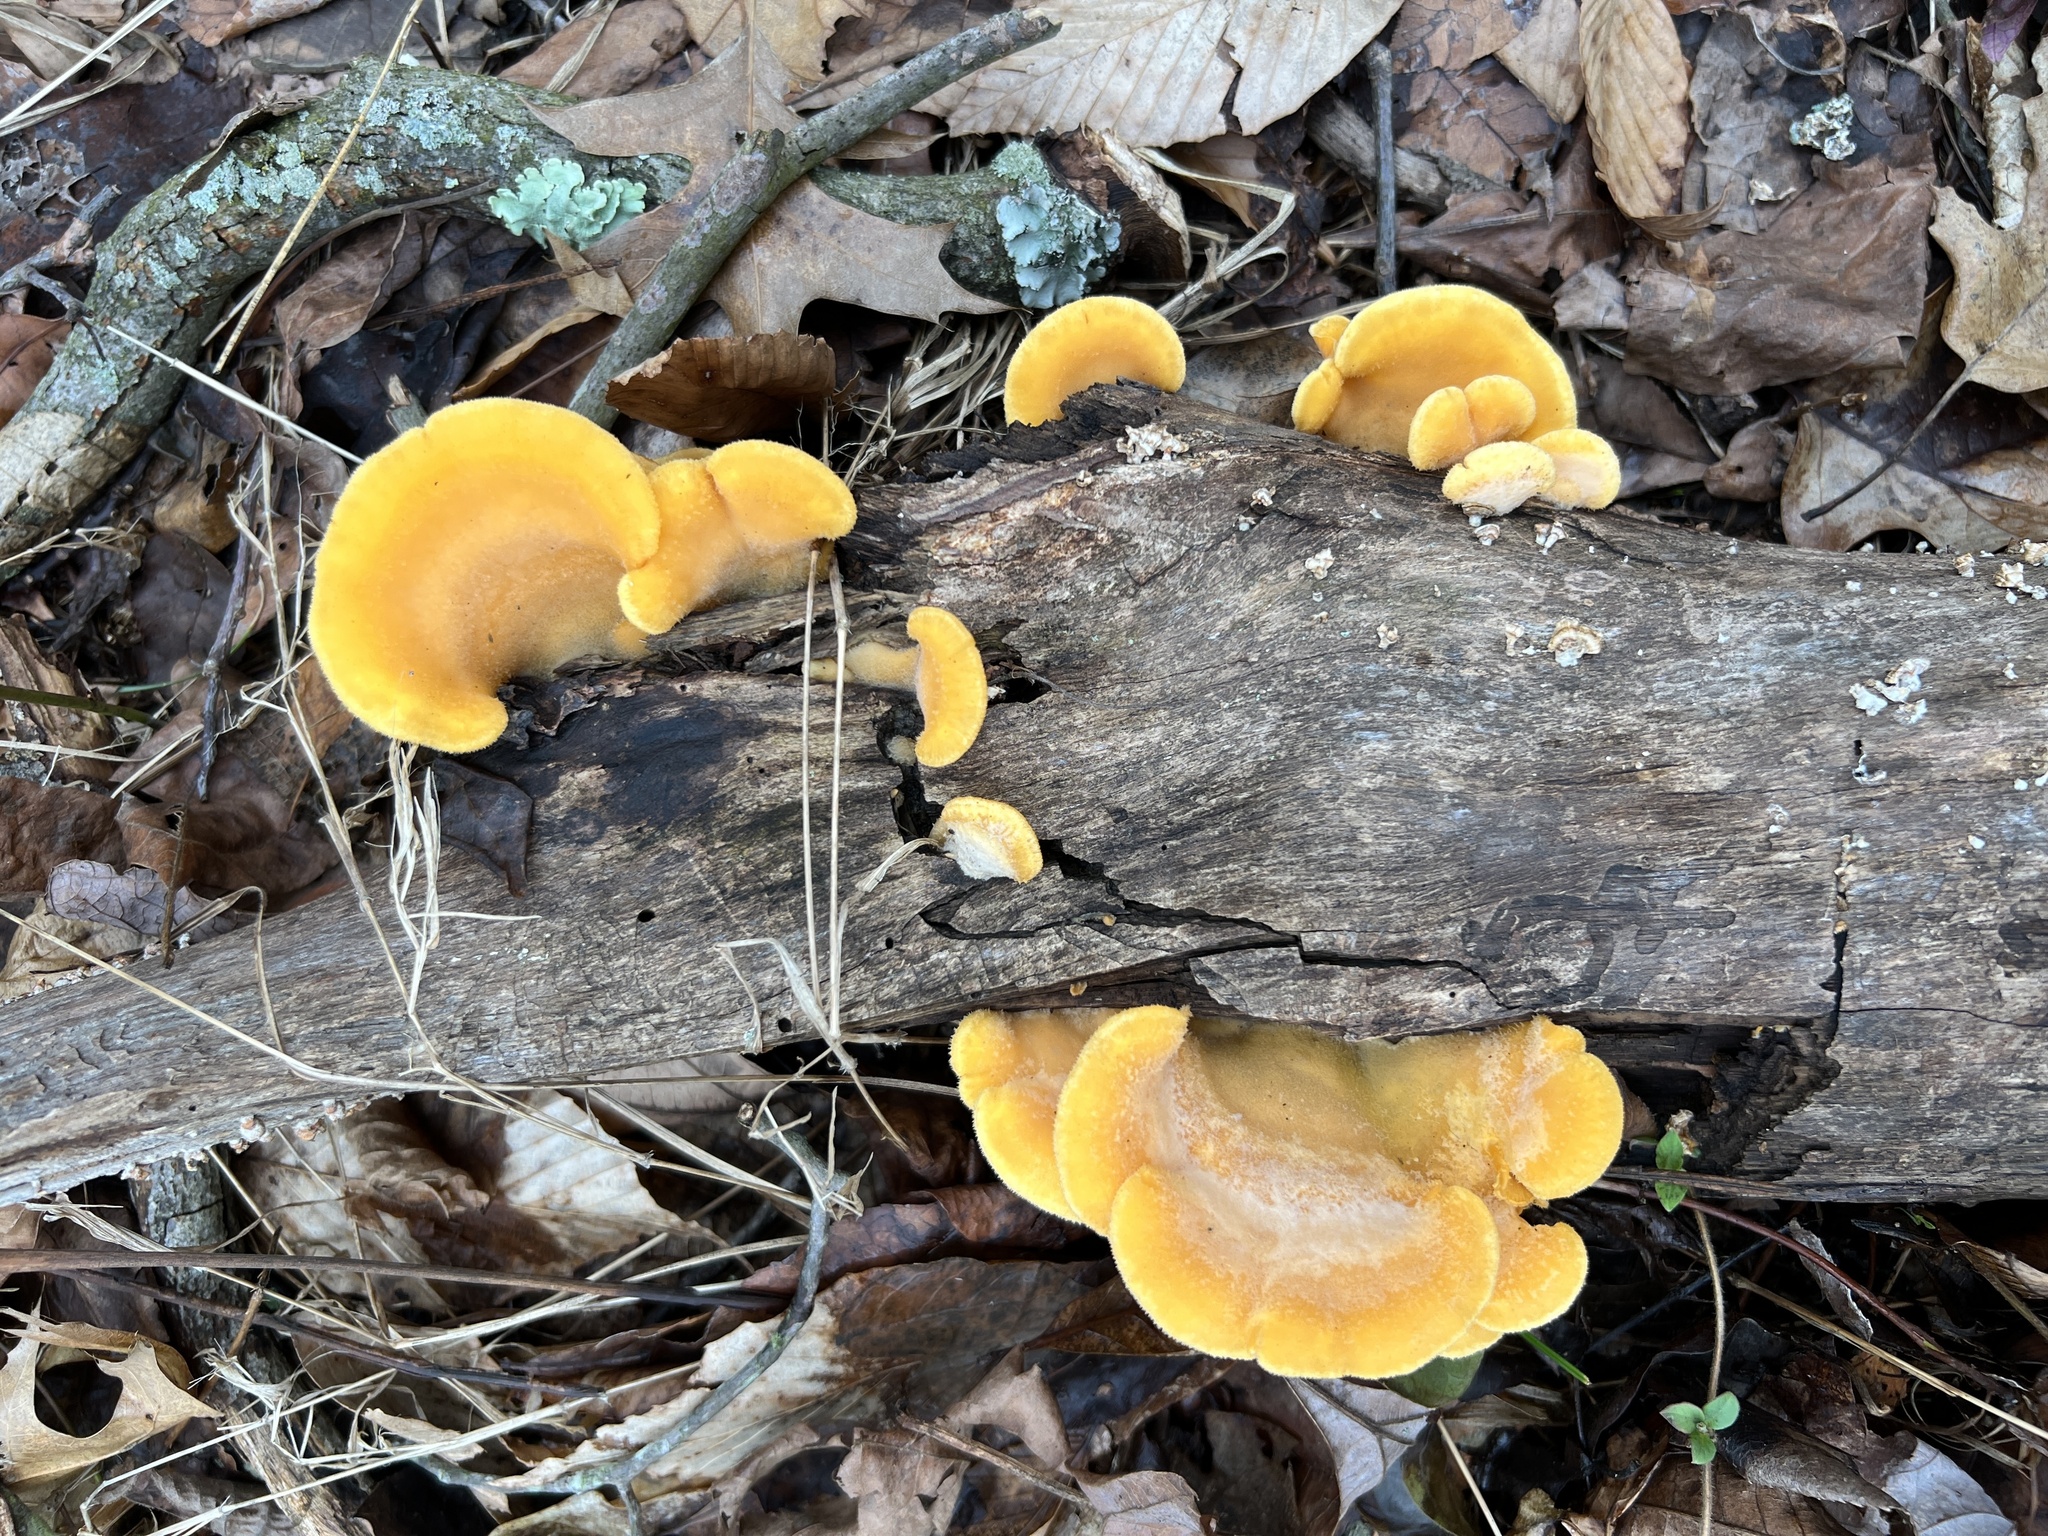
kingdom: Fungi
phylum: Basidiomycota
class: Agaricomycetes
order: Agaricales
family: Phyllotopsidaceae
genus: Phyllotopsis
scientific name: Phyllotopsis nidulans
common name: Orange mock oyster
